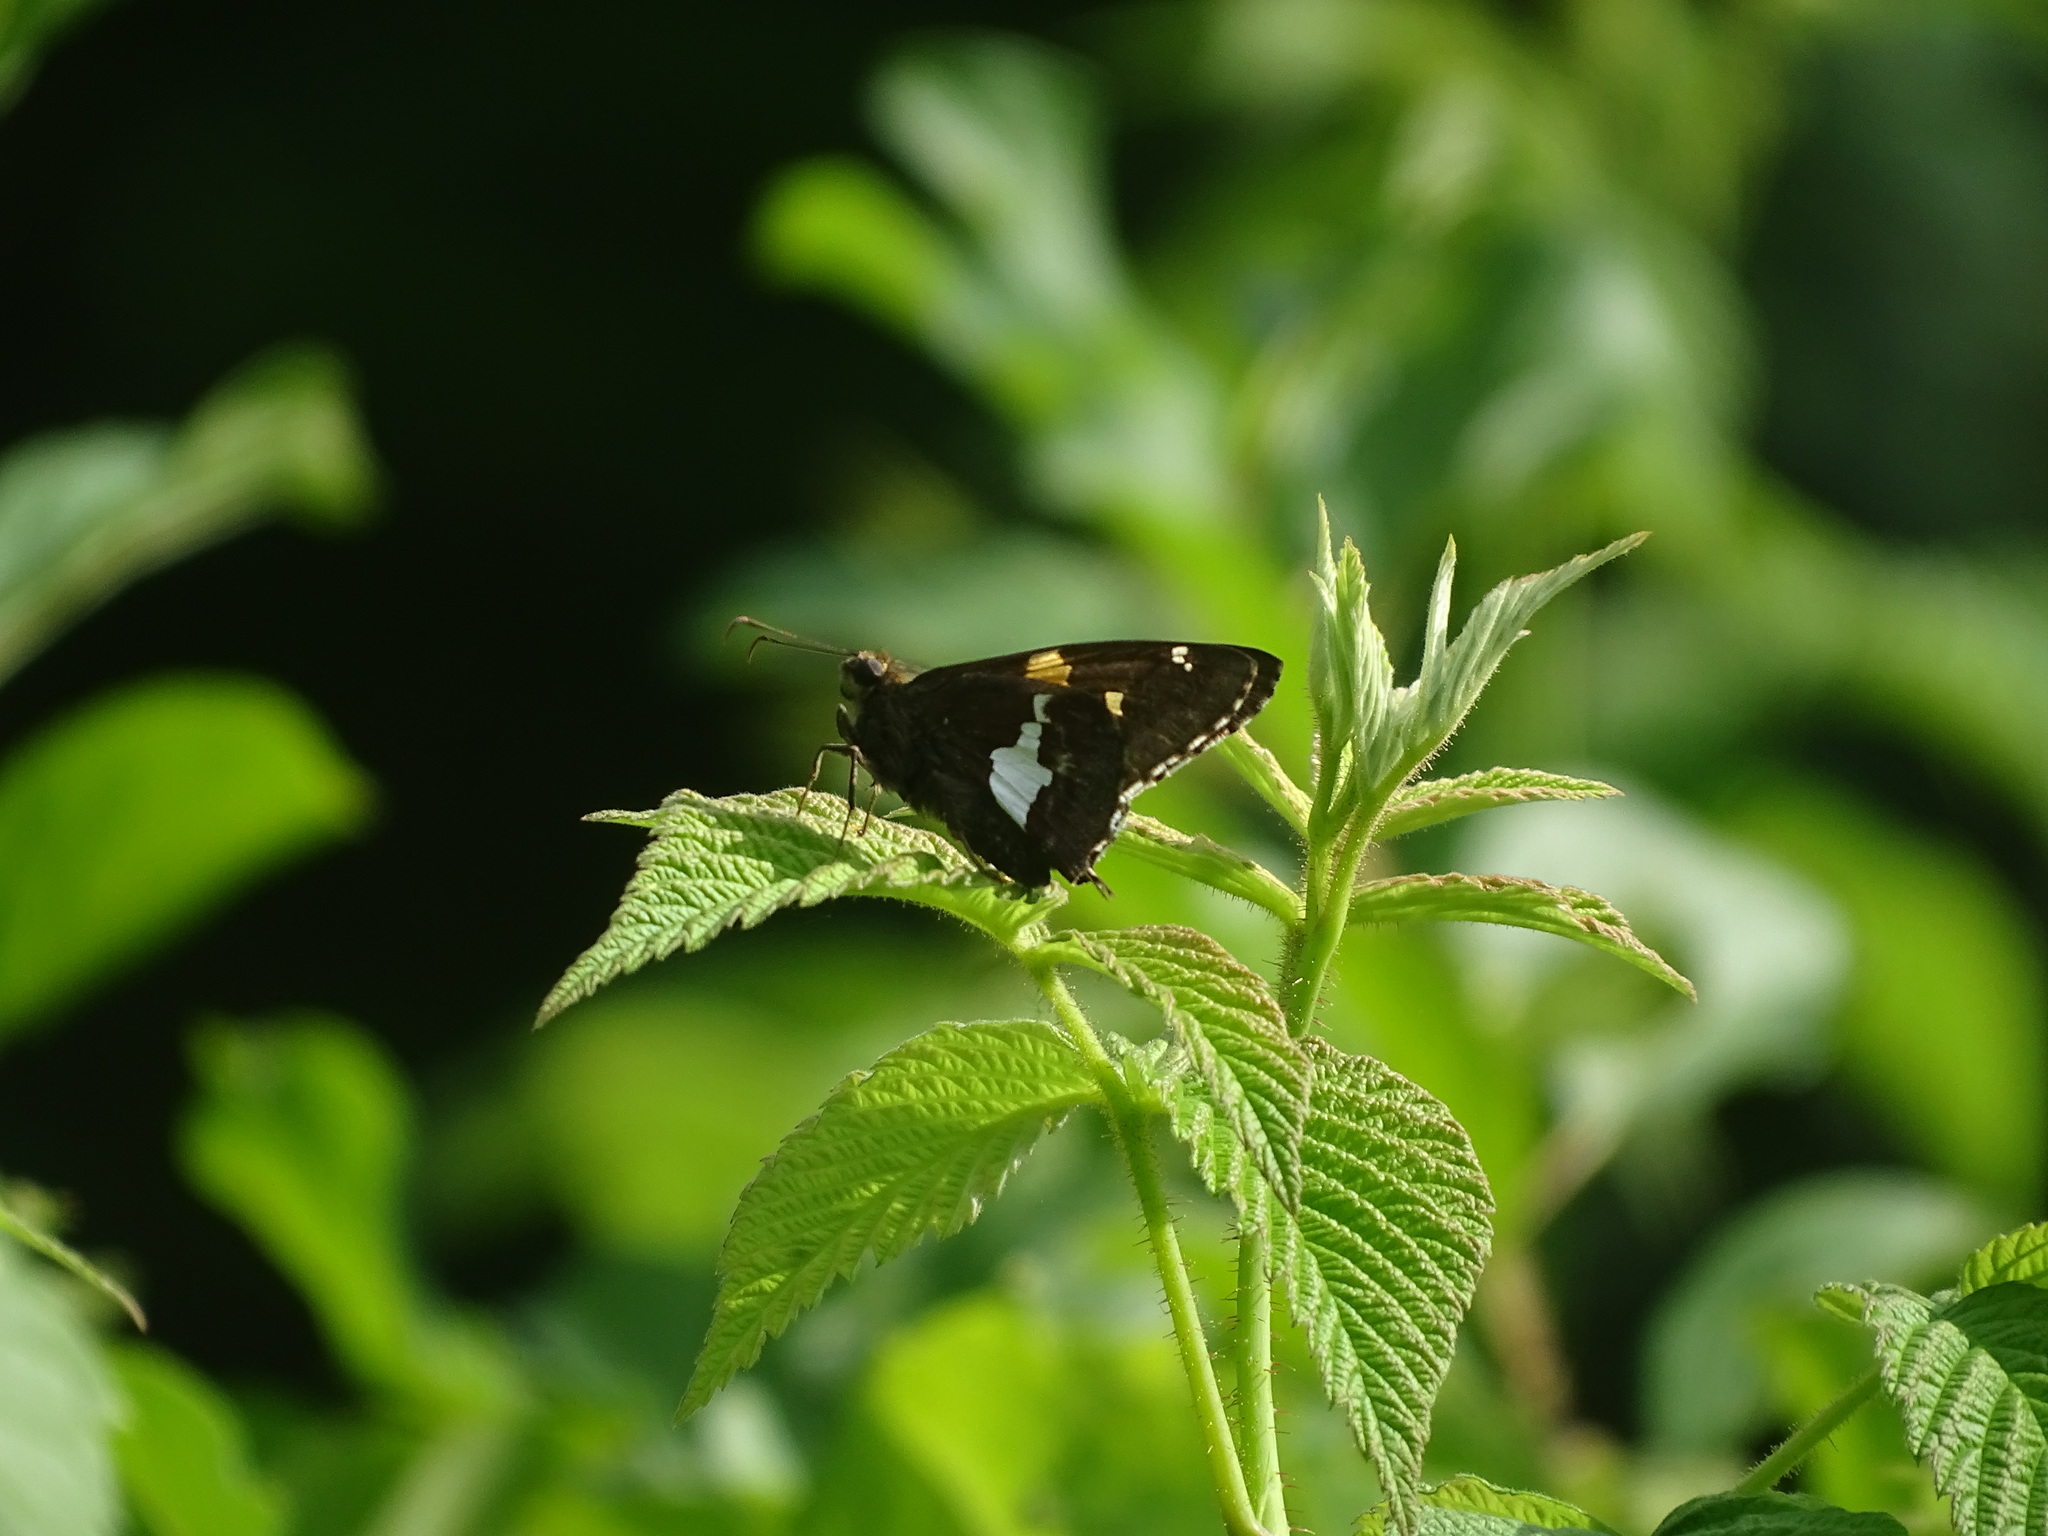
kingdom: Animalia
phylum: Arthropoda
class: Insecta
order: Lepidoptera
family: Hesperiidae
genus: Epargyreus
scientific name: Epargyreus clarus
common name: Silver-spotted skipper
